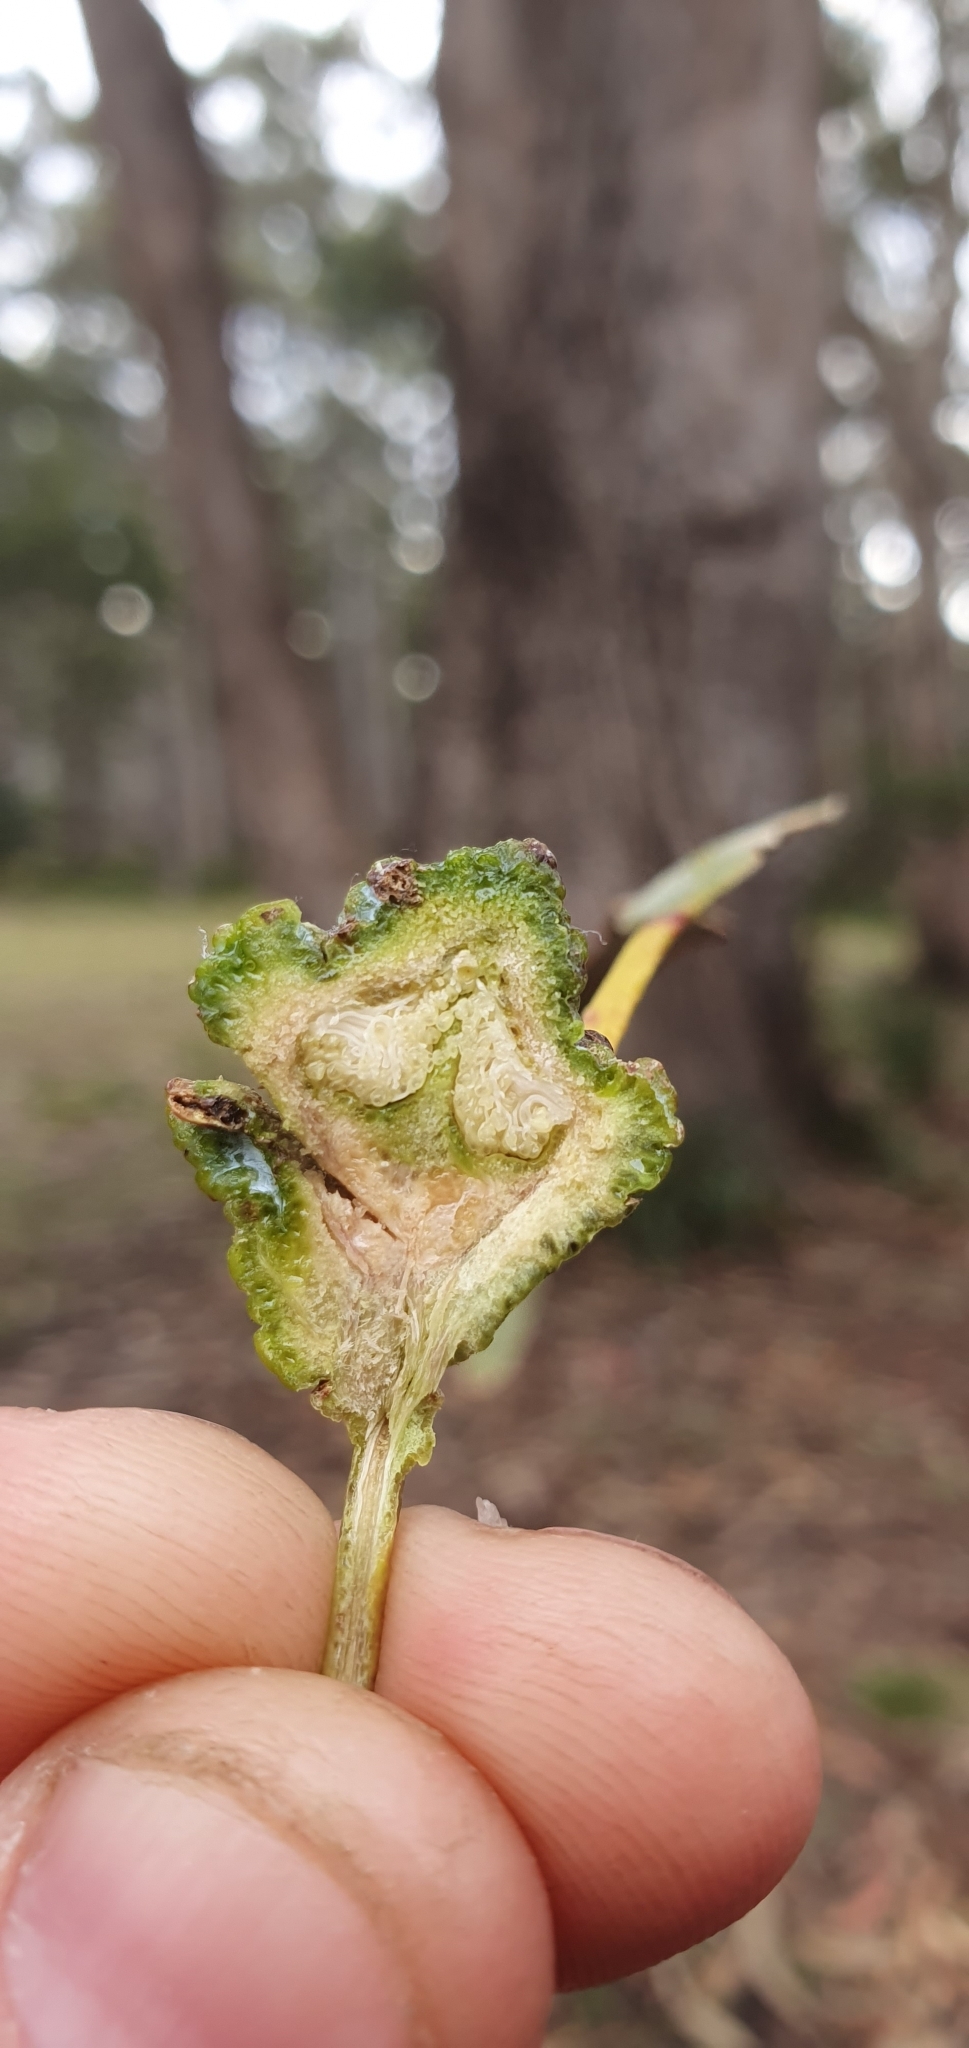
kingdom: Plantae
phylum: Tracheophyta
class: Magnoliopsida
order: Myrtales
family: Myrtaceae
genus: Eucalyptus
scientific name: Eucalyptus globulus
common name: Southern blue-gum
